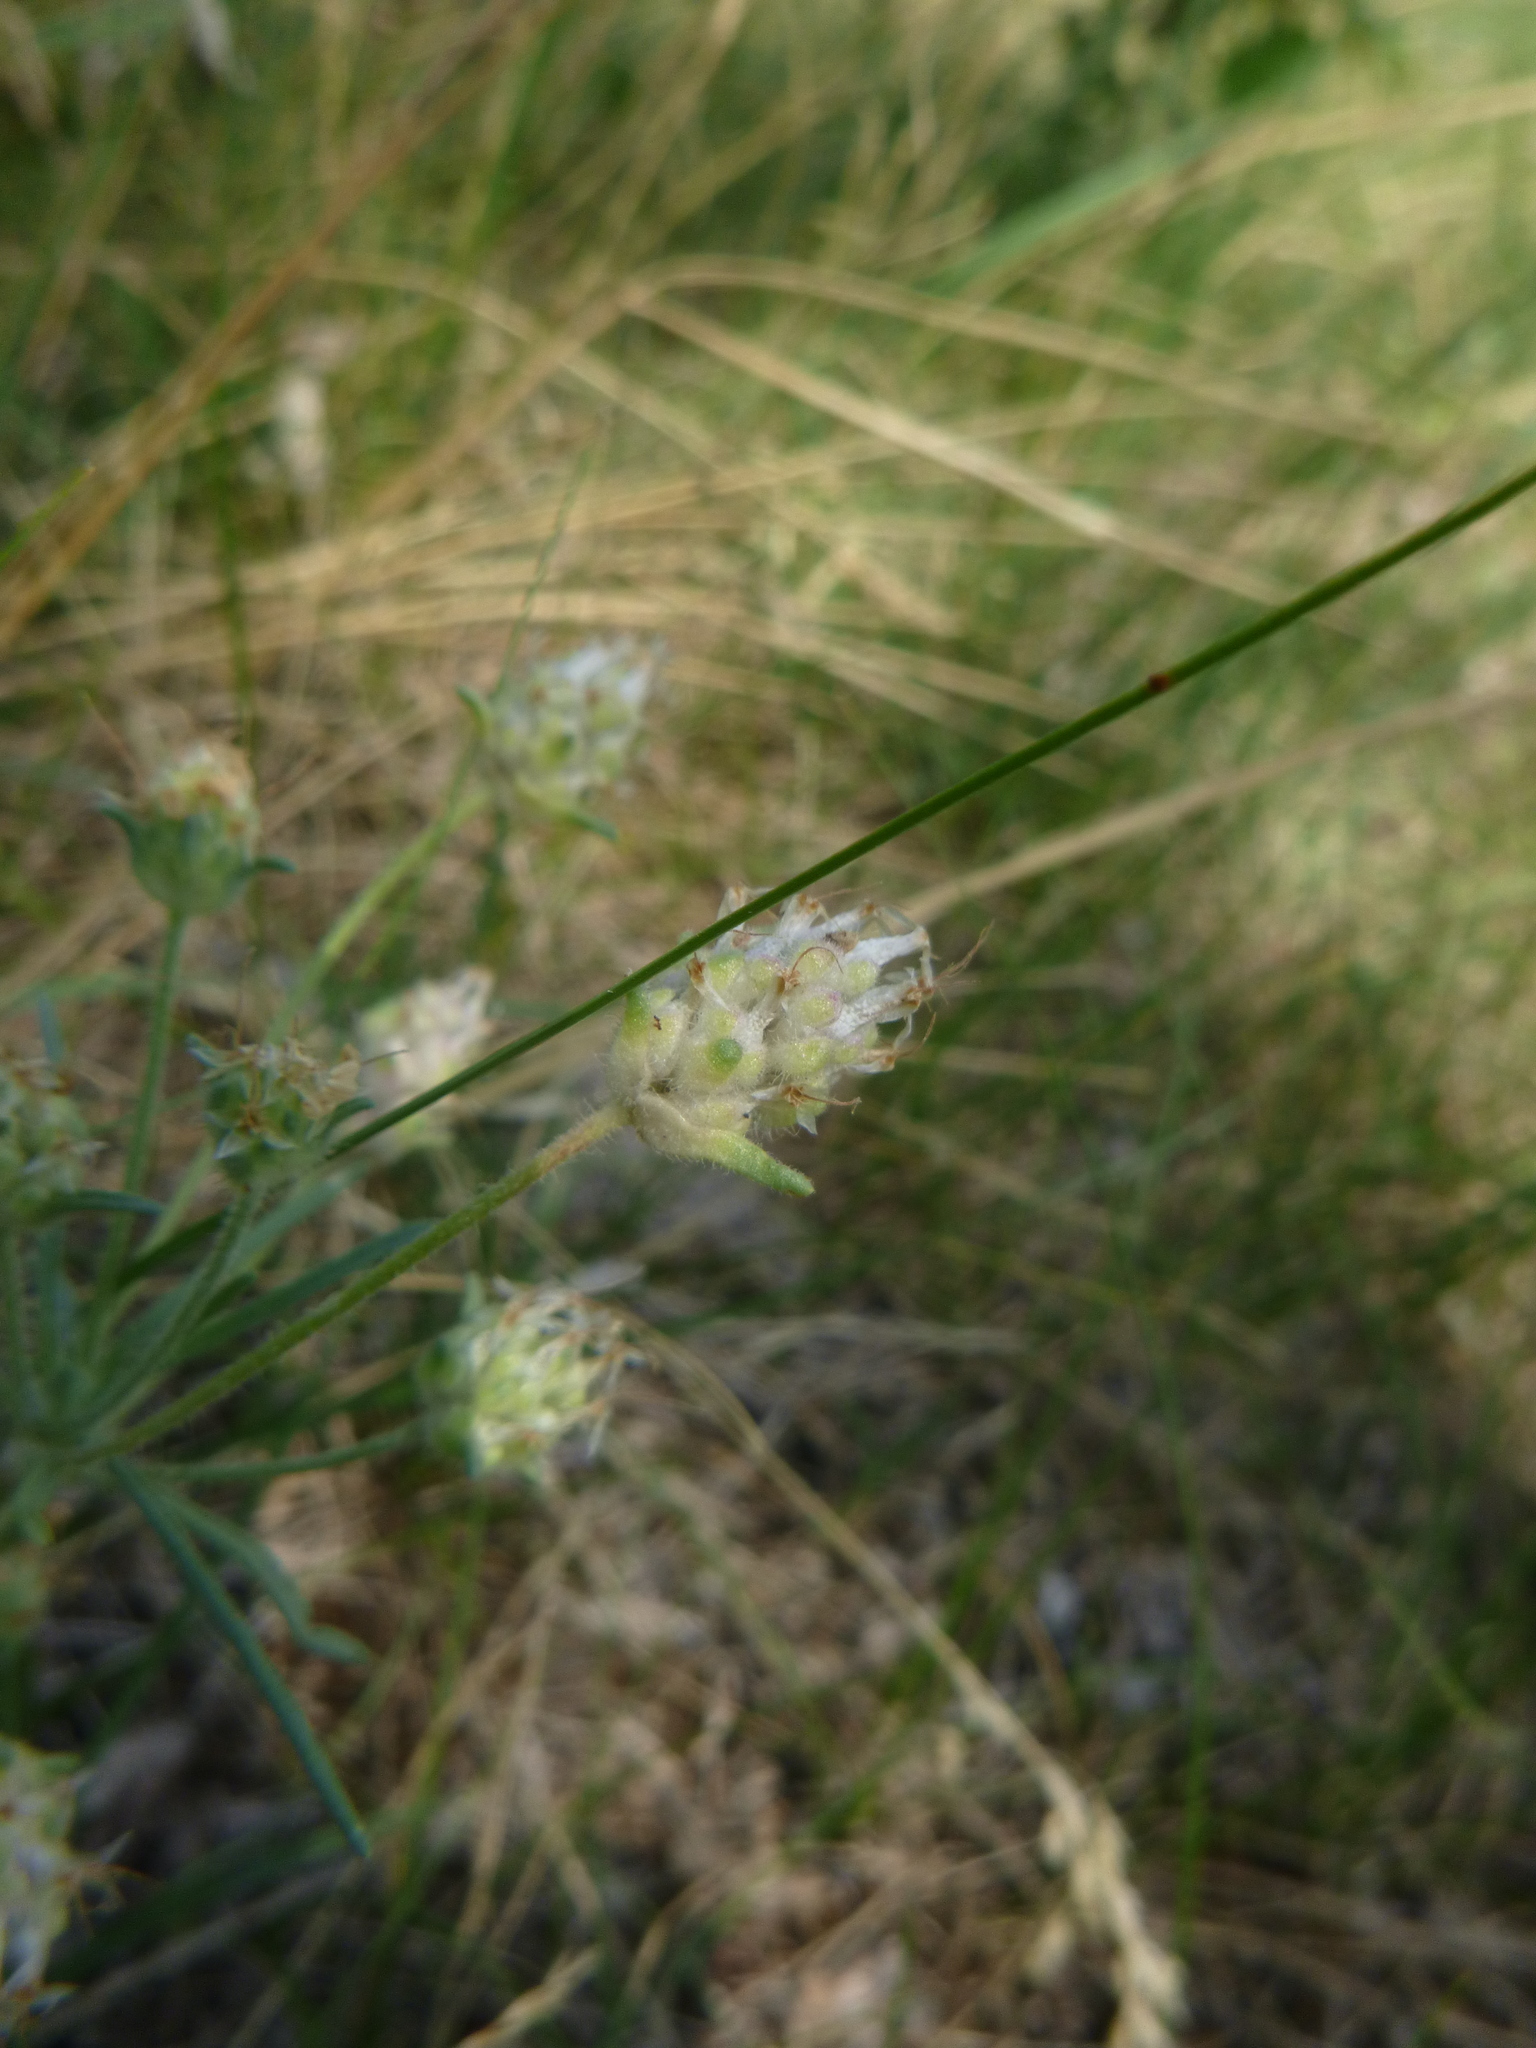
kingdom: Plantae
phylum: Tracheophyta
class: Magnoliopsida
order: Lamiales
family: Plantaginaceae
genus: Plantago
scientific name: Plantago arenaria
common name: Branched plantain
